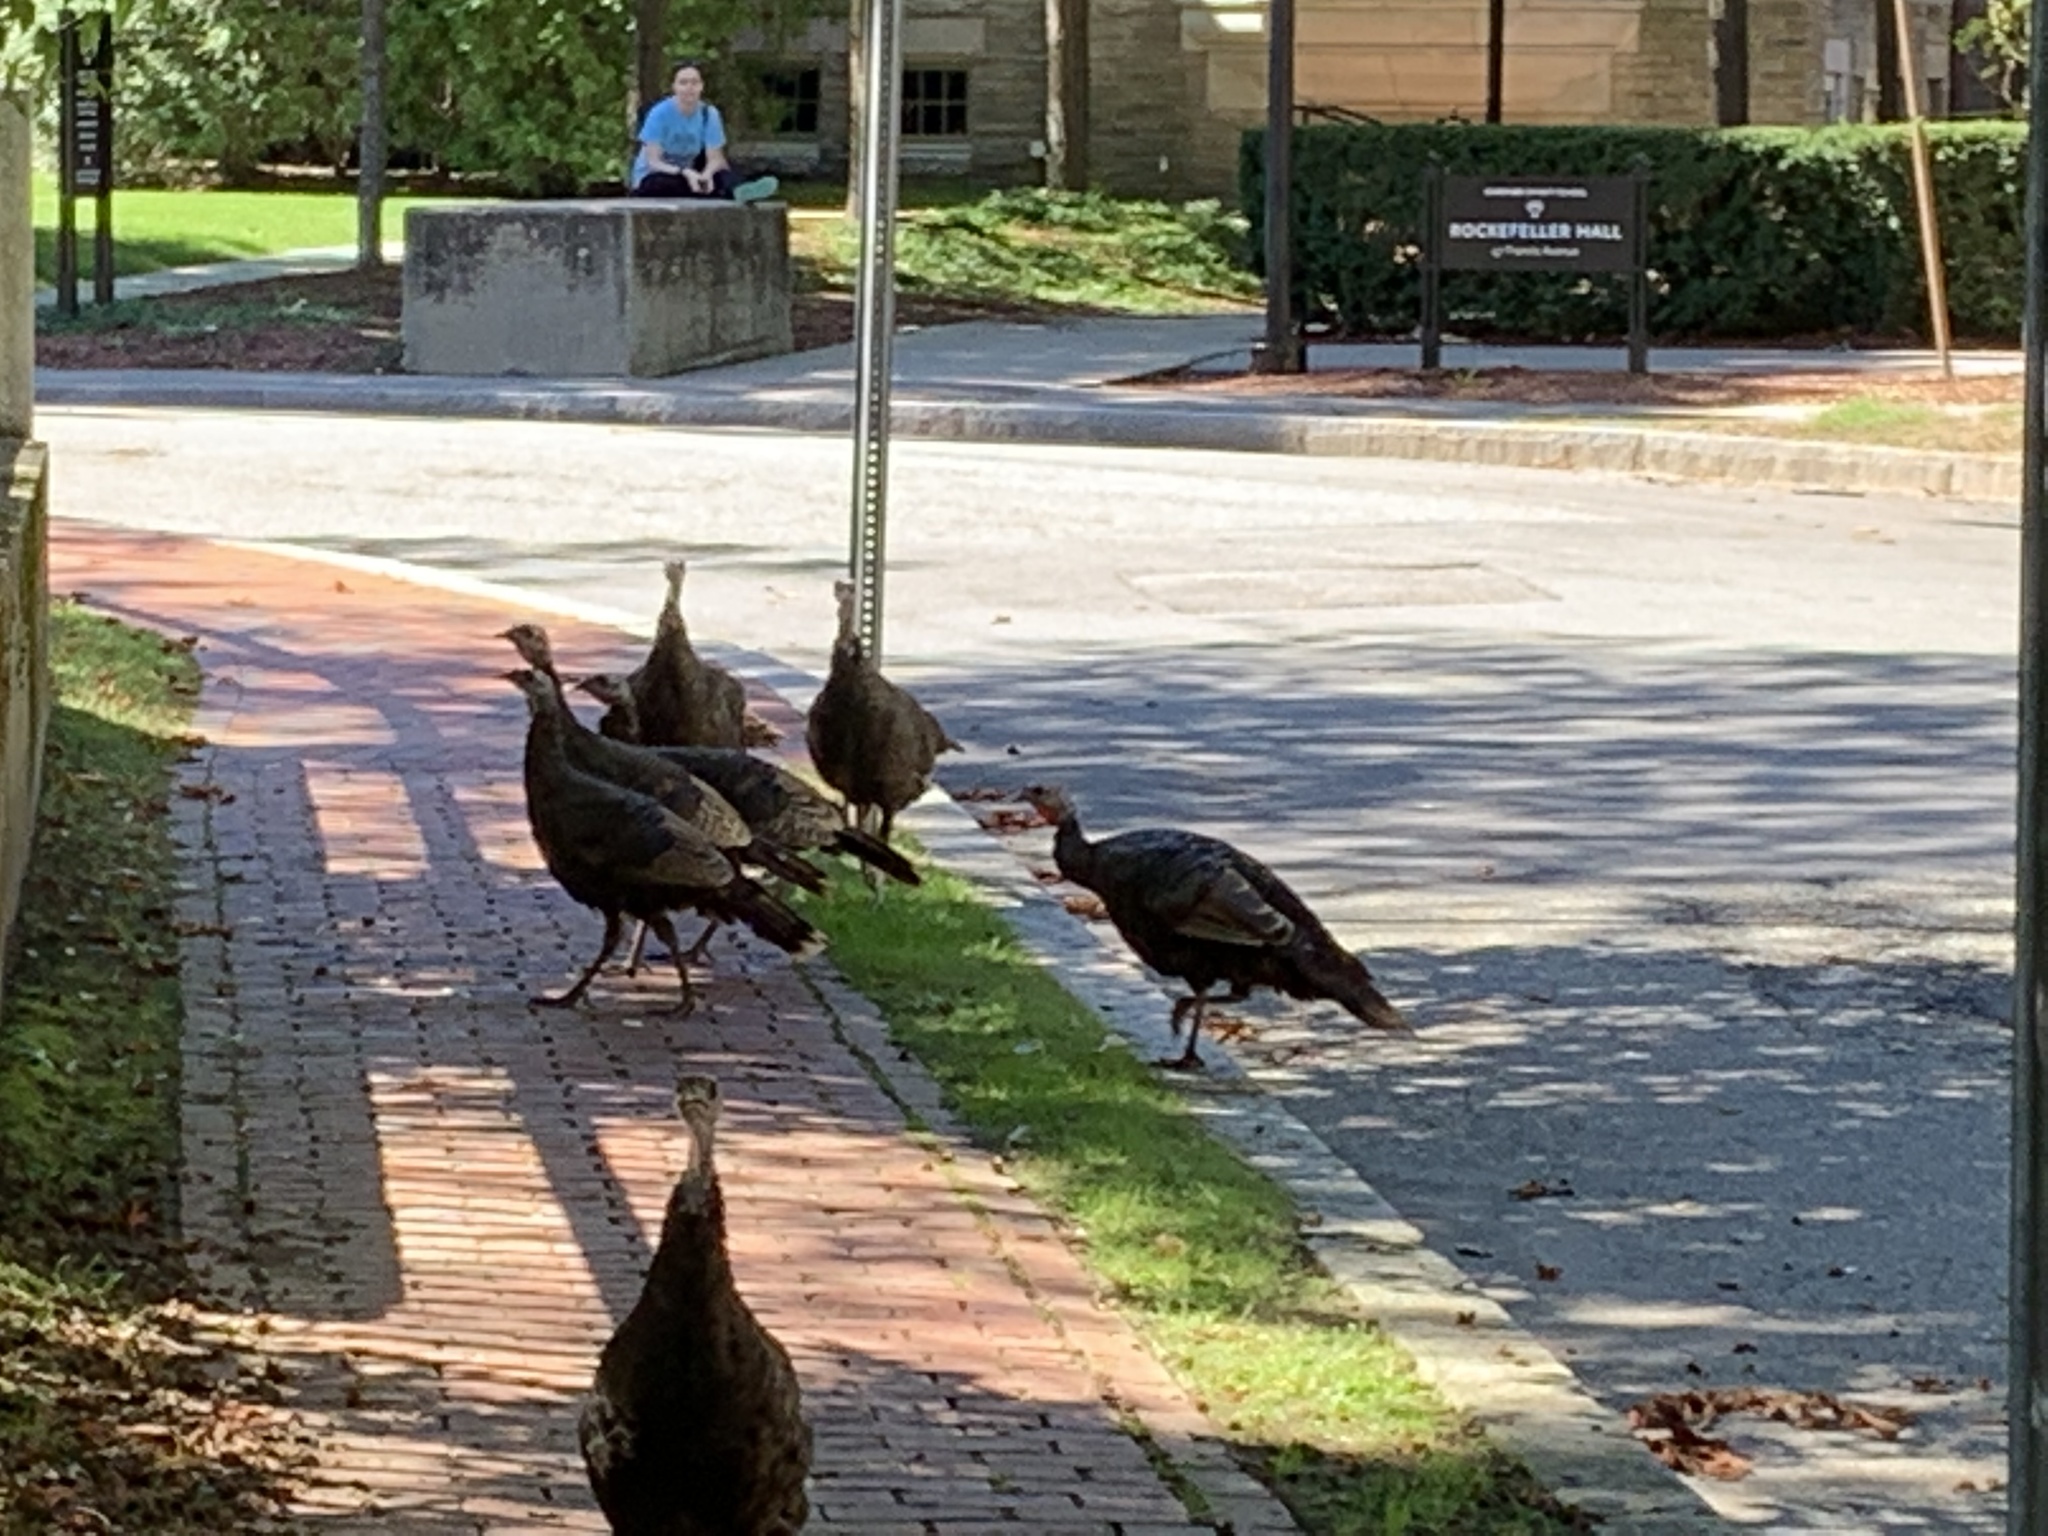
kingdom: Animalia
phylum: Chordata
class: Aves
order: Galliformes
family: Phasianidae
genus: Meleagris
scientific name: Meleagris gallopavo
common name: Wild turkey
